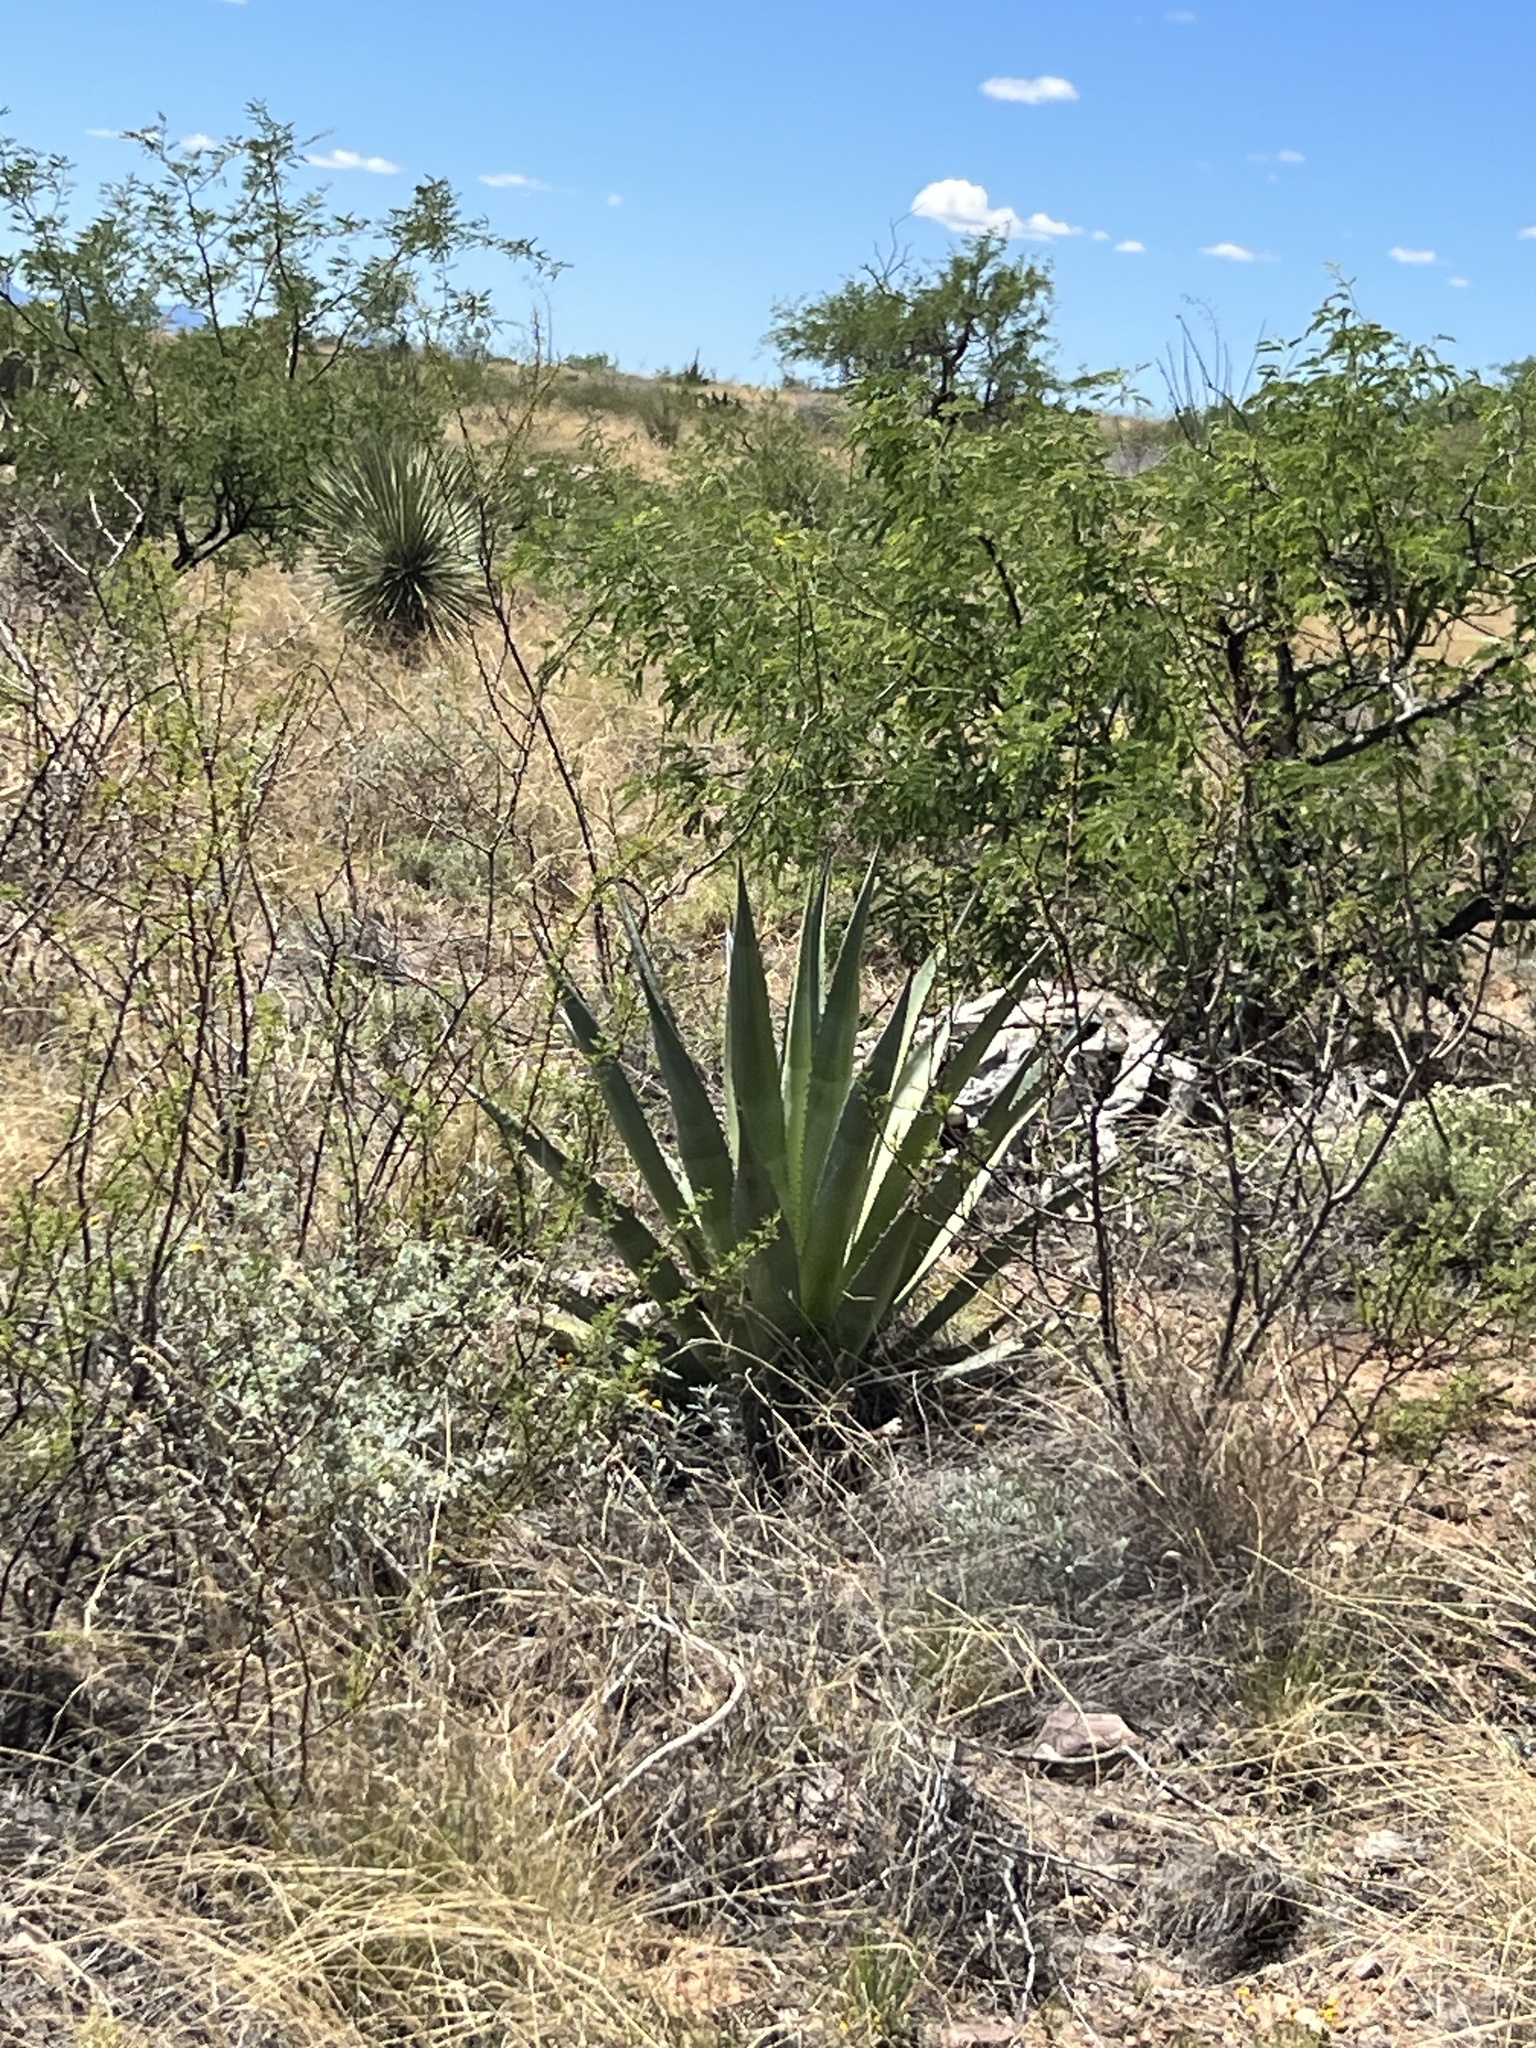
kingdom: Plantae
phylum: Tracheophyta
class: Liliopsida
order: Asparagales
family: Asparagaceae
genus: Agave
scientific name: Agave palmeri
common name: Palmer agave
